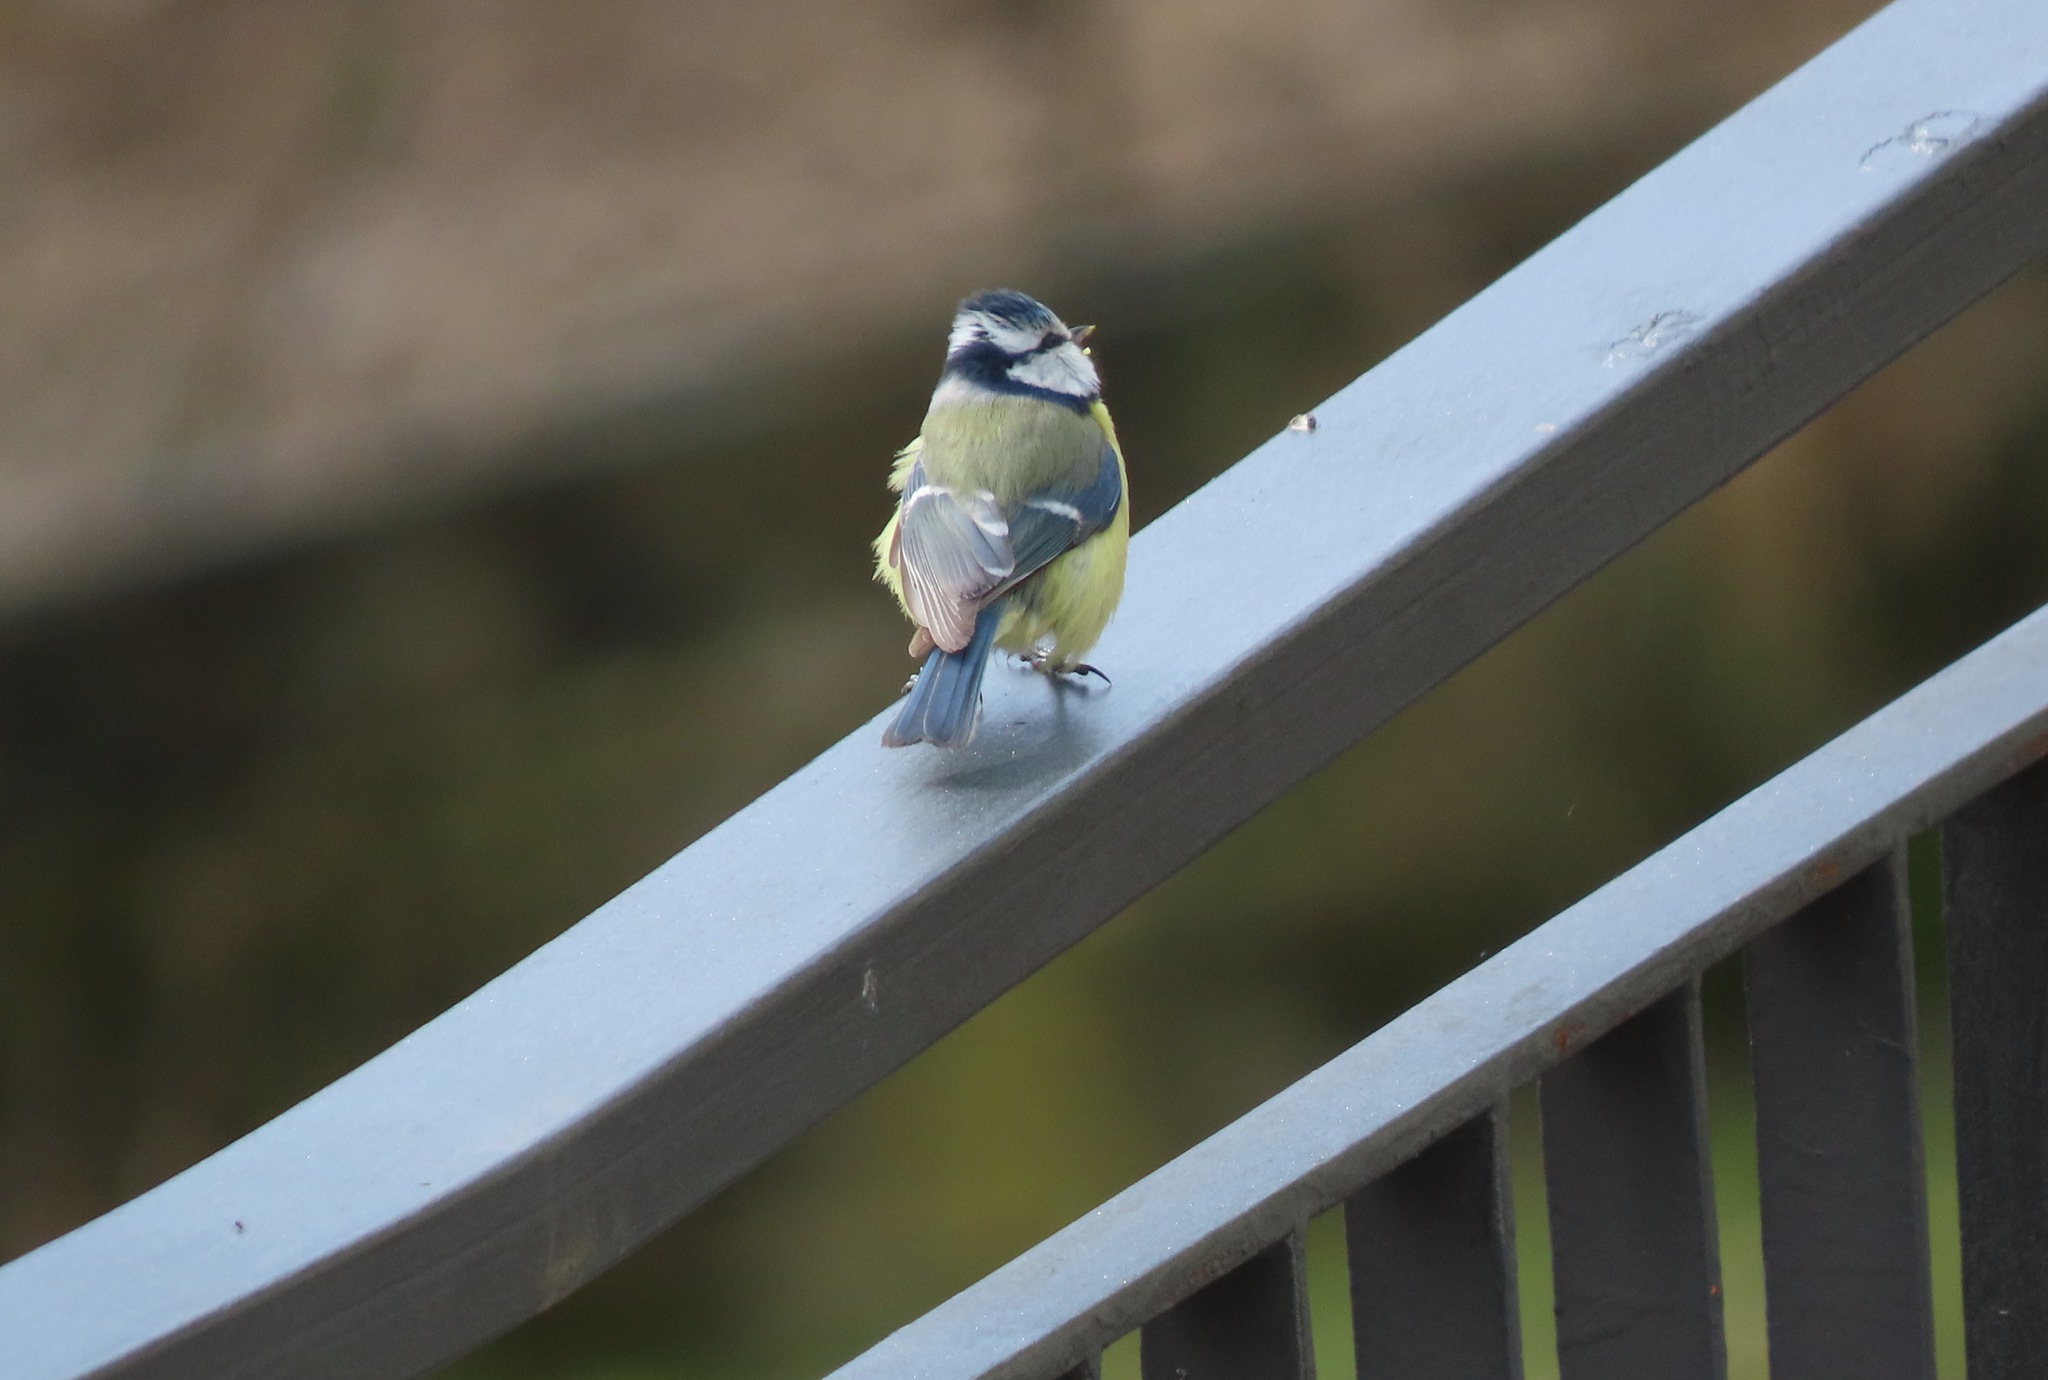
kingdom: Animalia
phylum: Chordata
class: Aves
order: Passeriformes
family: Paridae
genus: Cyanistes
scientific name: Cyanistes caeruleus
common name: Eurasian blue tit
